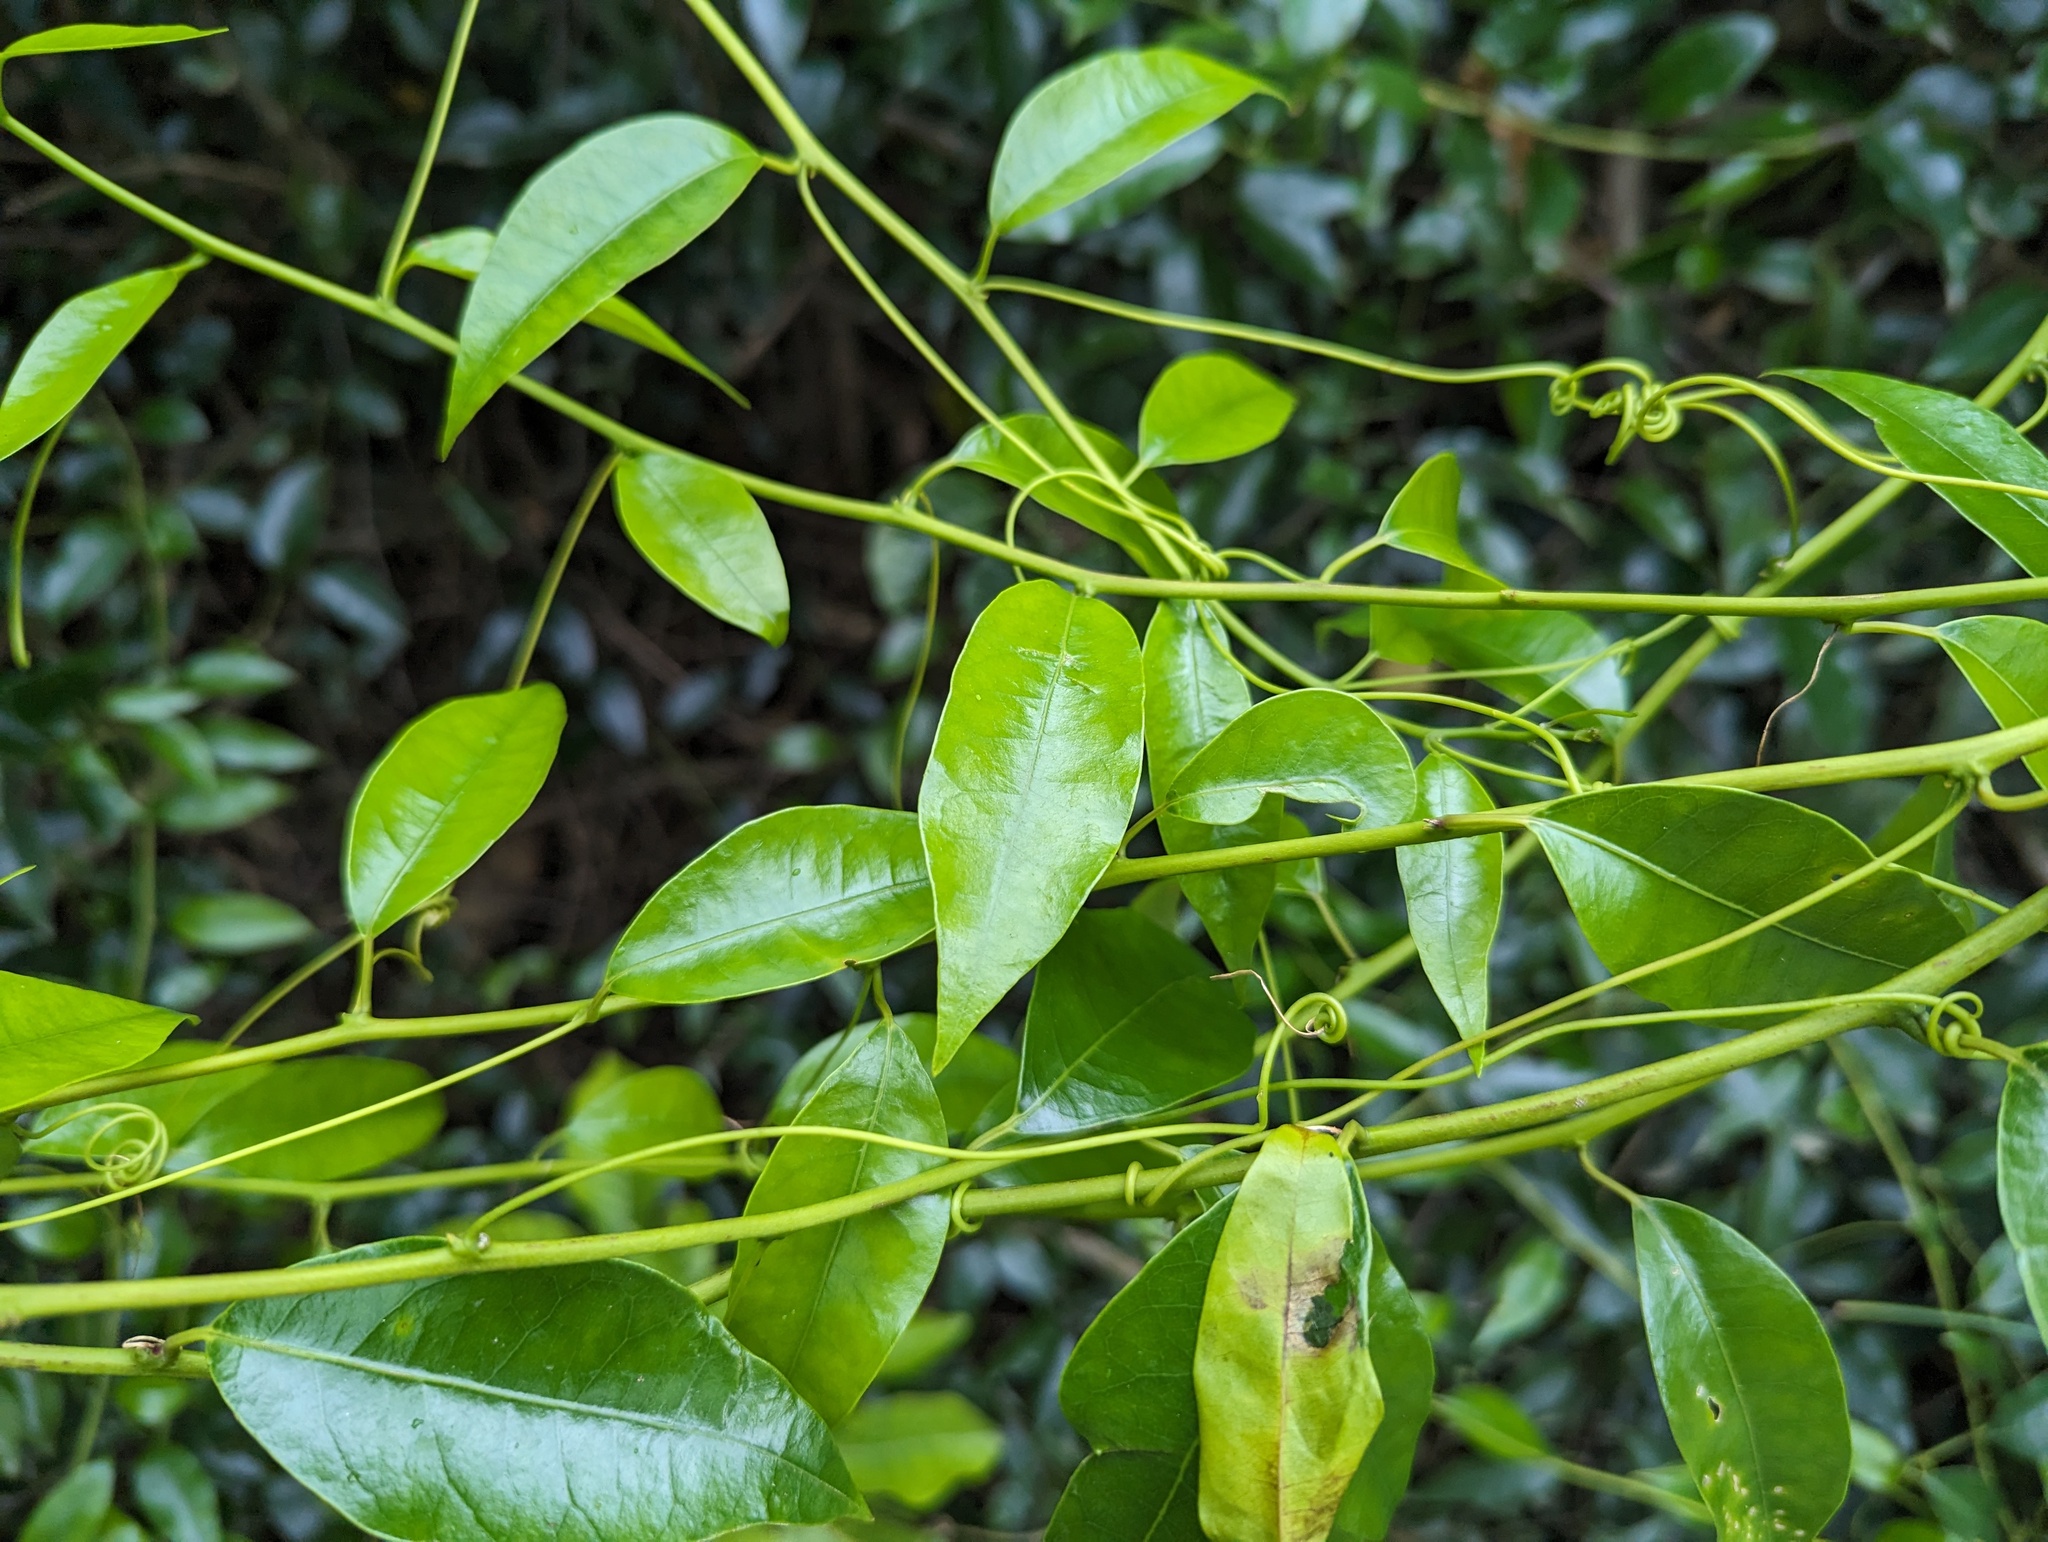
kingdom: Plantae
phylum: Tracheophyta
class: Magnoliopsida
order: Malpighiales
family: Passifloraceae
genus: Passiflora
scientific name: Passiflora tetrandra
